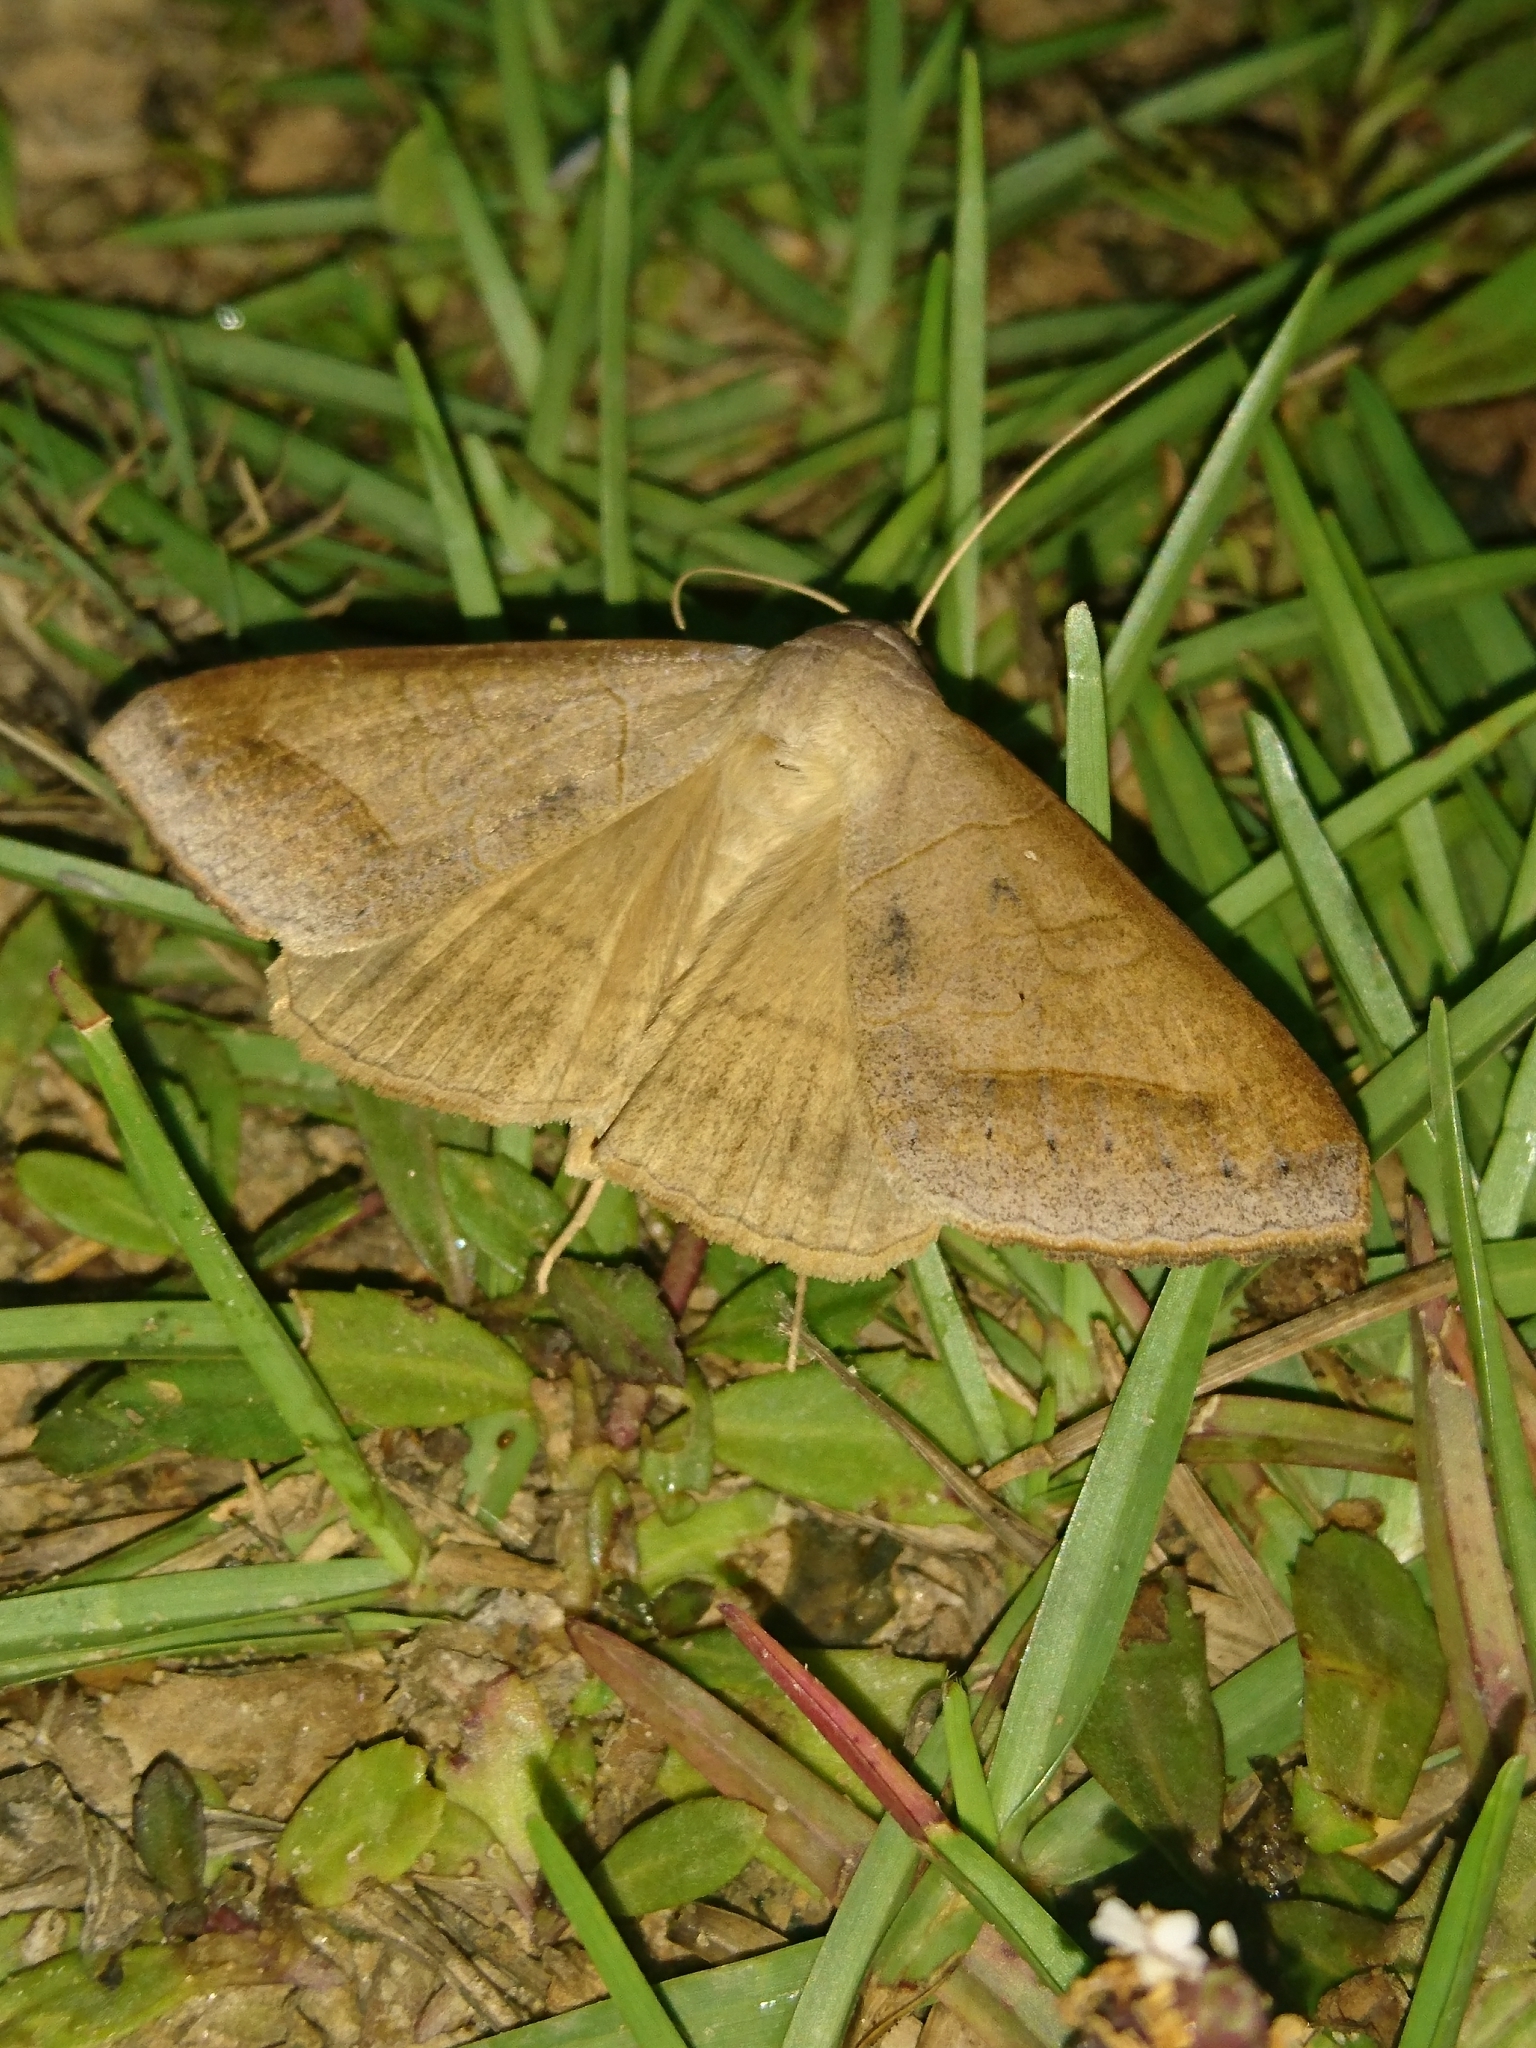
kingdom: Animalia
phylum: Arthropoda
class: Insecta
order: Lepidoptera
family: Erebidae
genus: Mocis
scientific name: Mocis marcida
